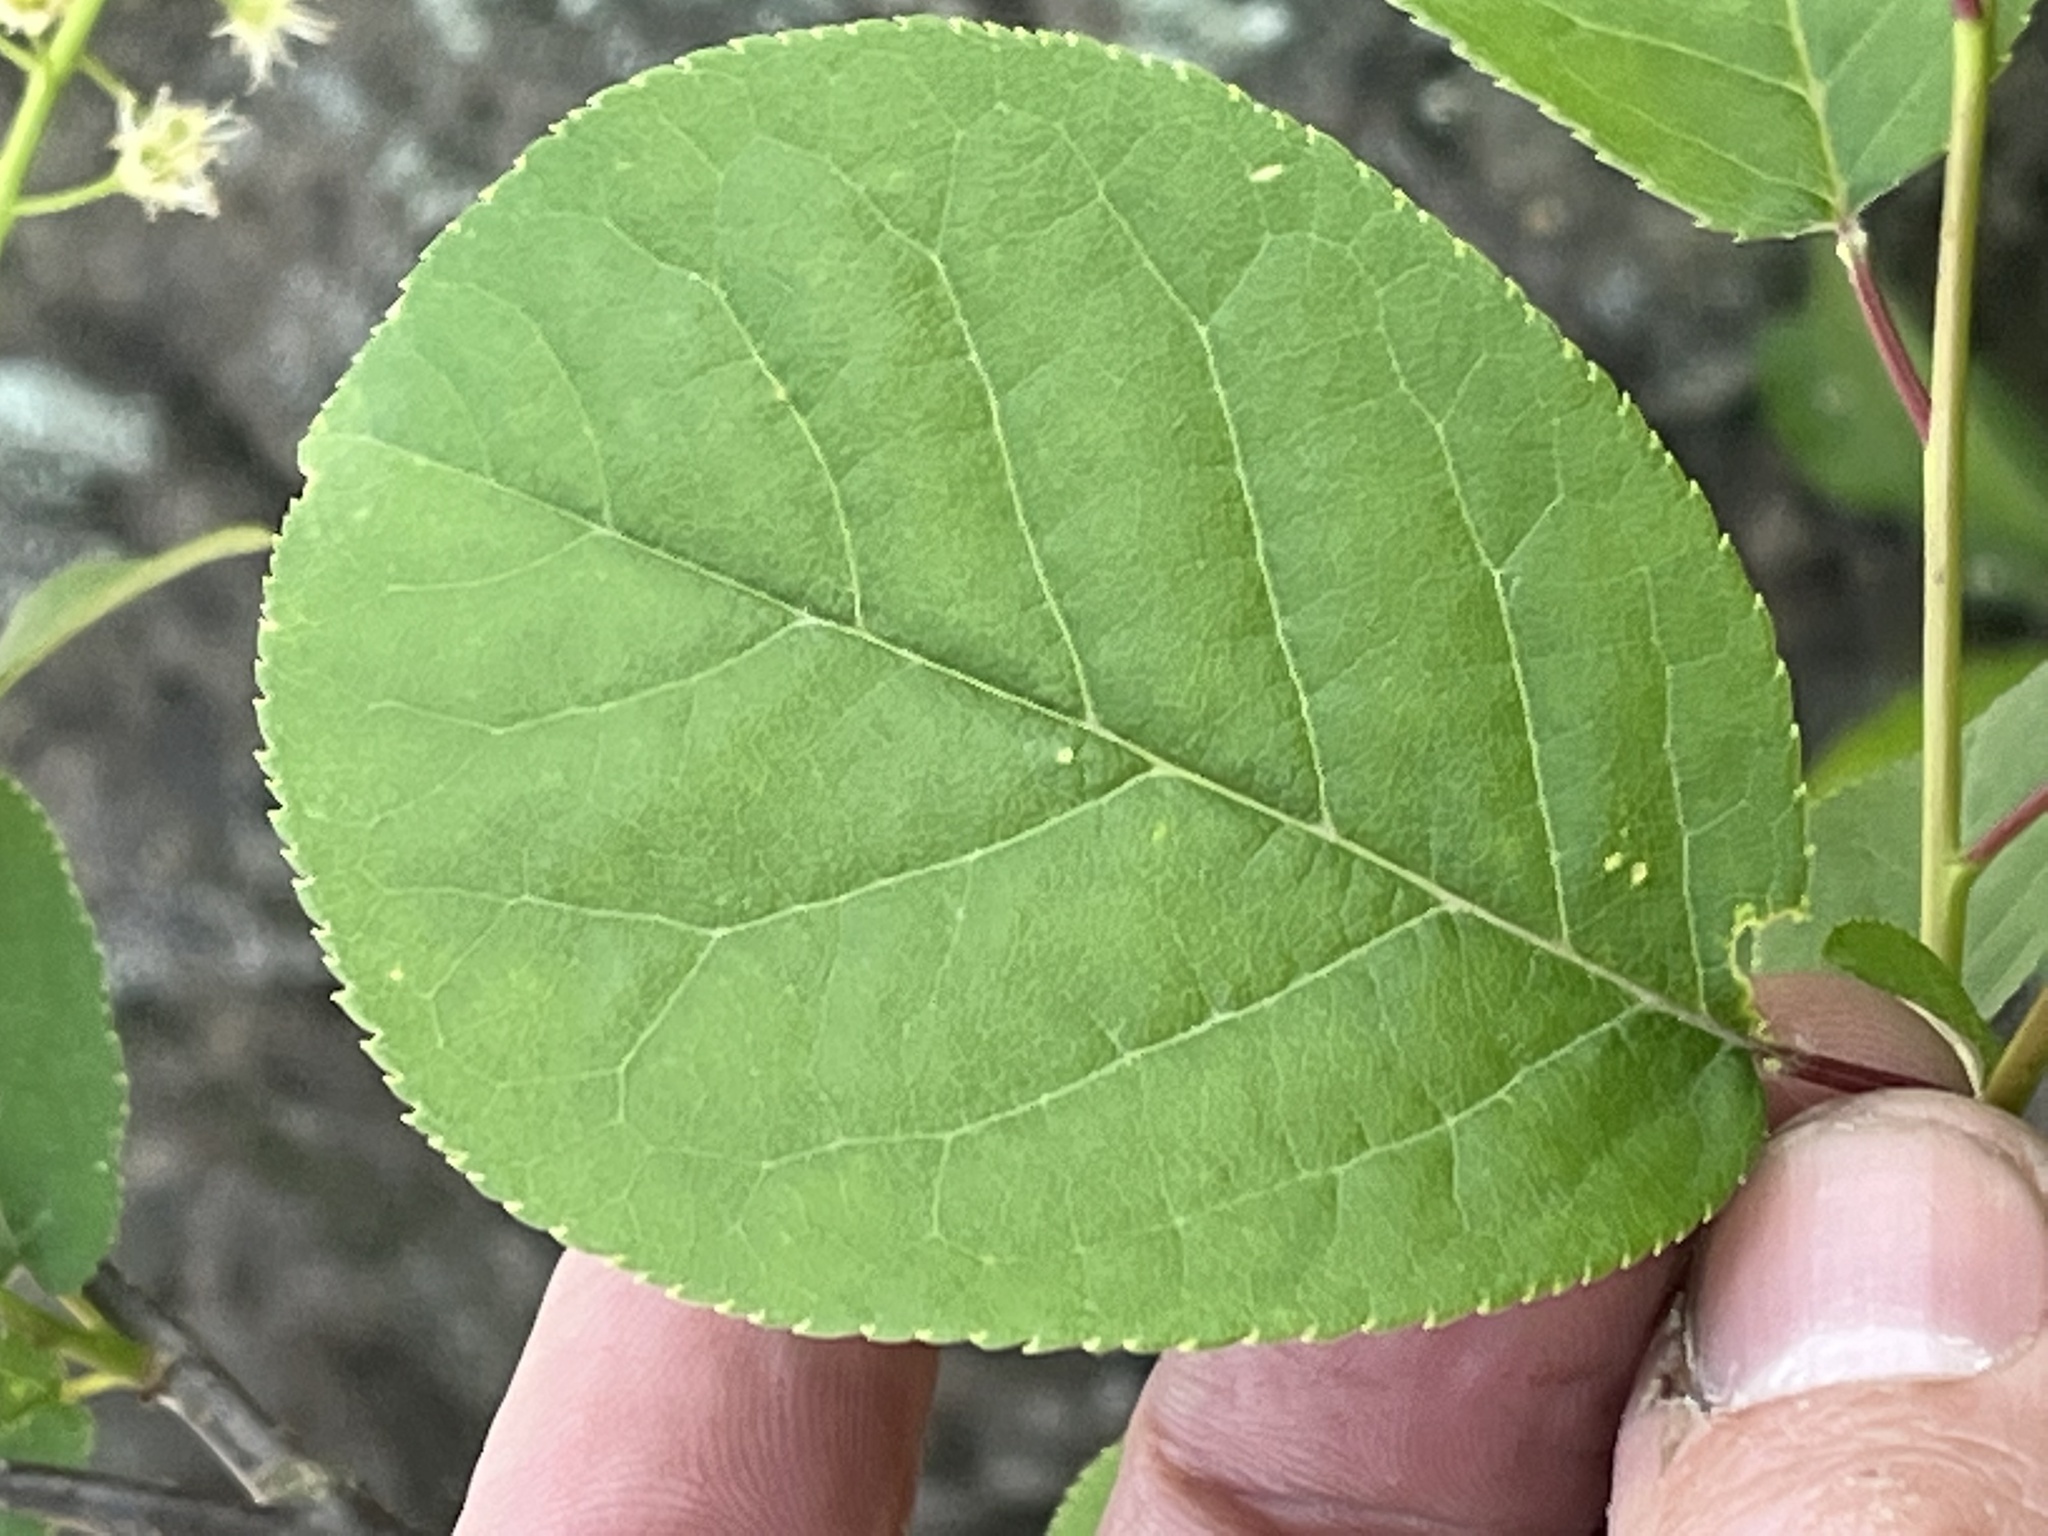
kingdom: Plantae
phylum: Tracheophyta
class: Magnoliopsida
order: Rosales
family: Rosaceae
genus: Prunus
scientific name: Prunus virginiana
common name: Chokecherry
